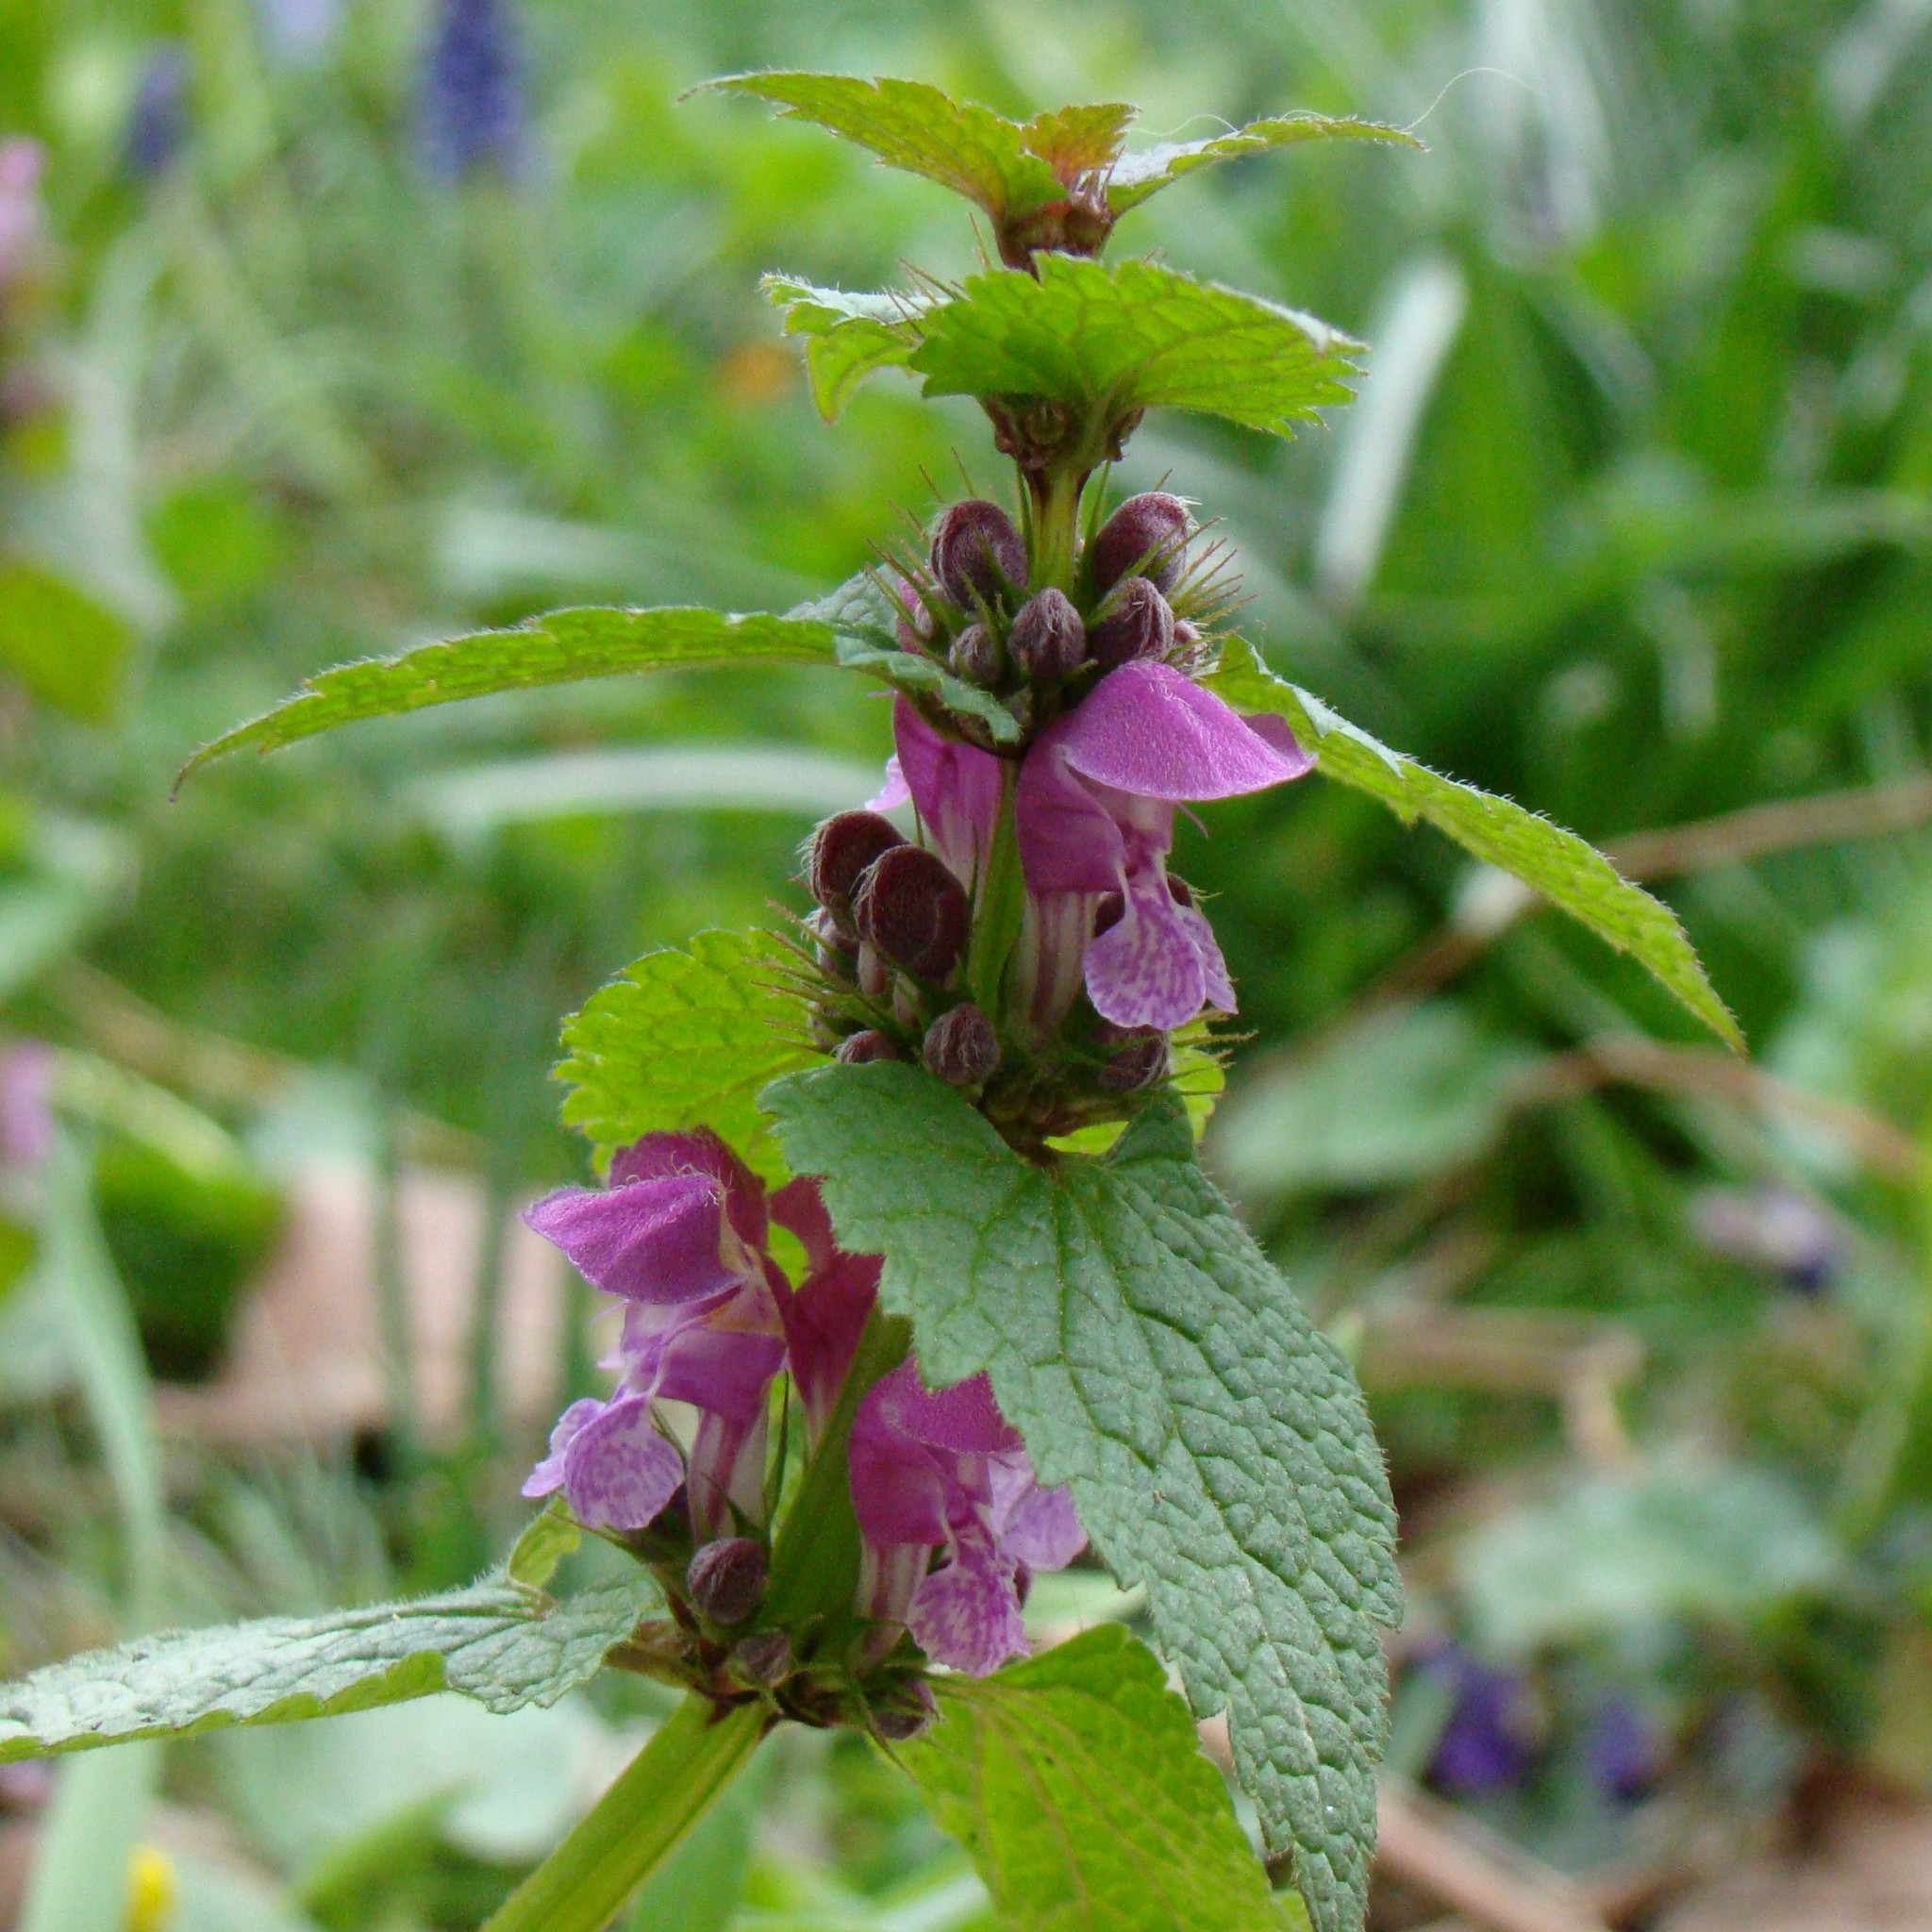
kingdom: Plantae
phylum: Tracheophyta
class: Magnoliopsida
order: Lamiales
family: Lamiaceae
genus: Lamium
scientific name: Lamium maculatum
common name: Spotted dead-nettle
